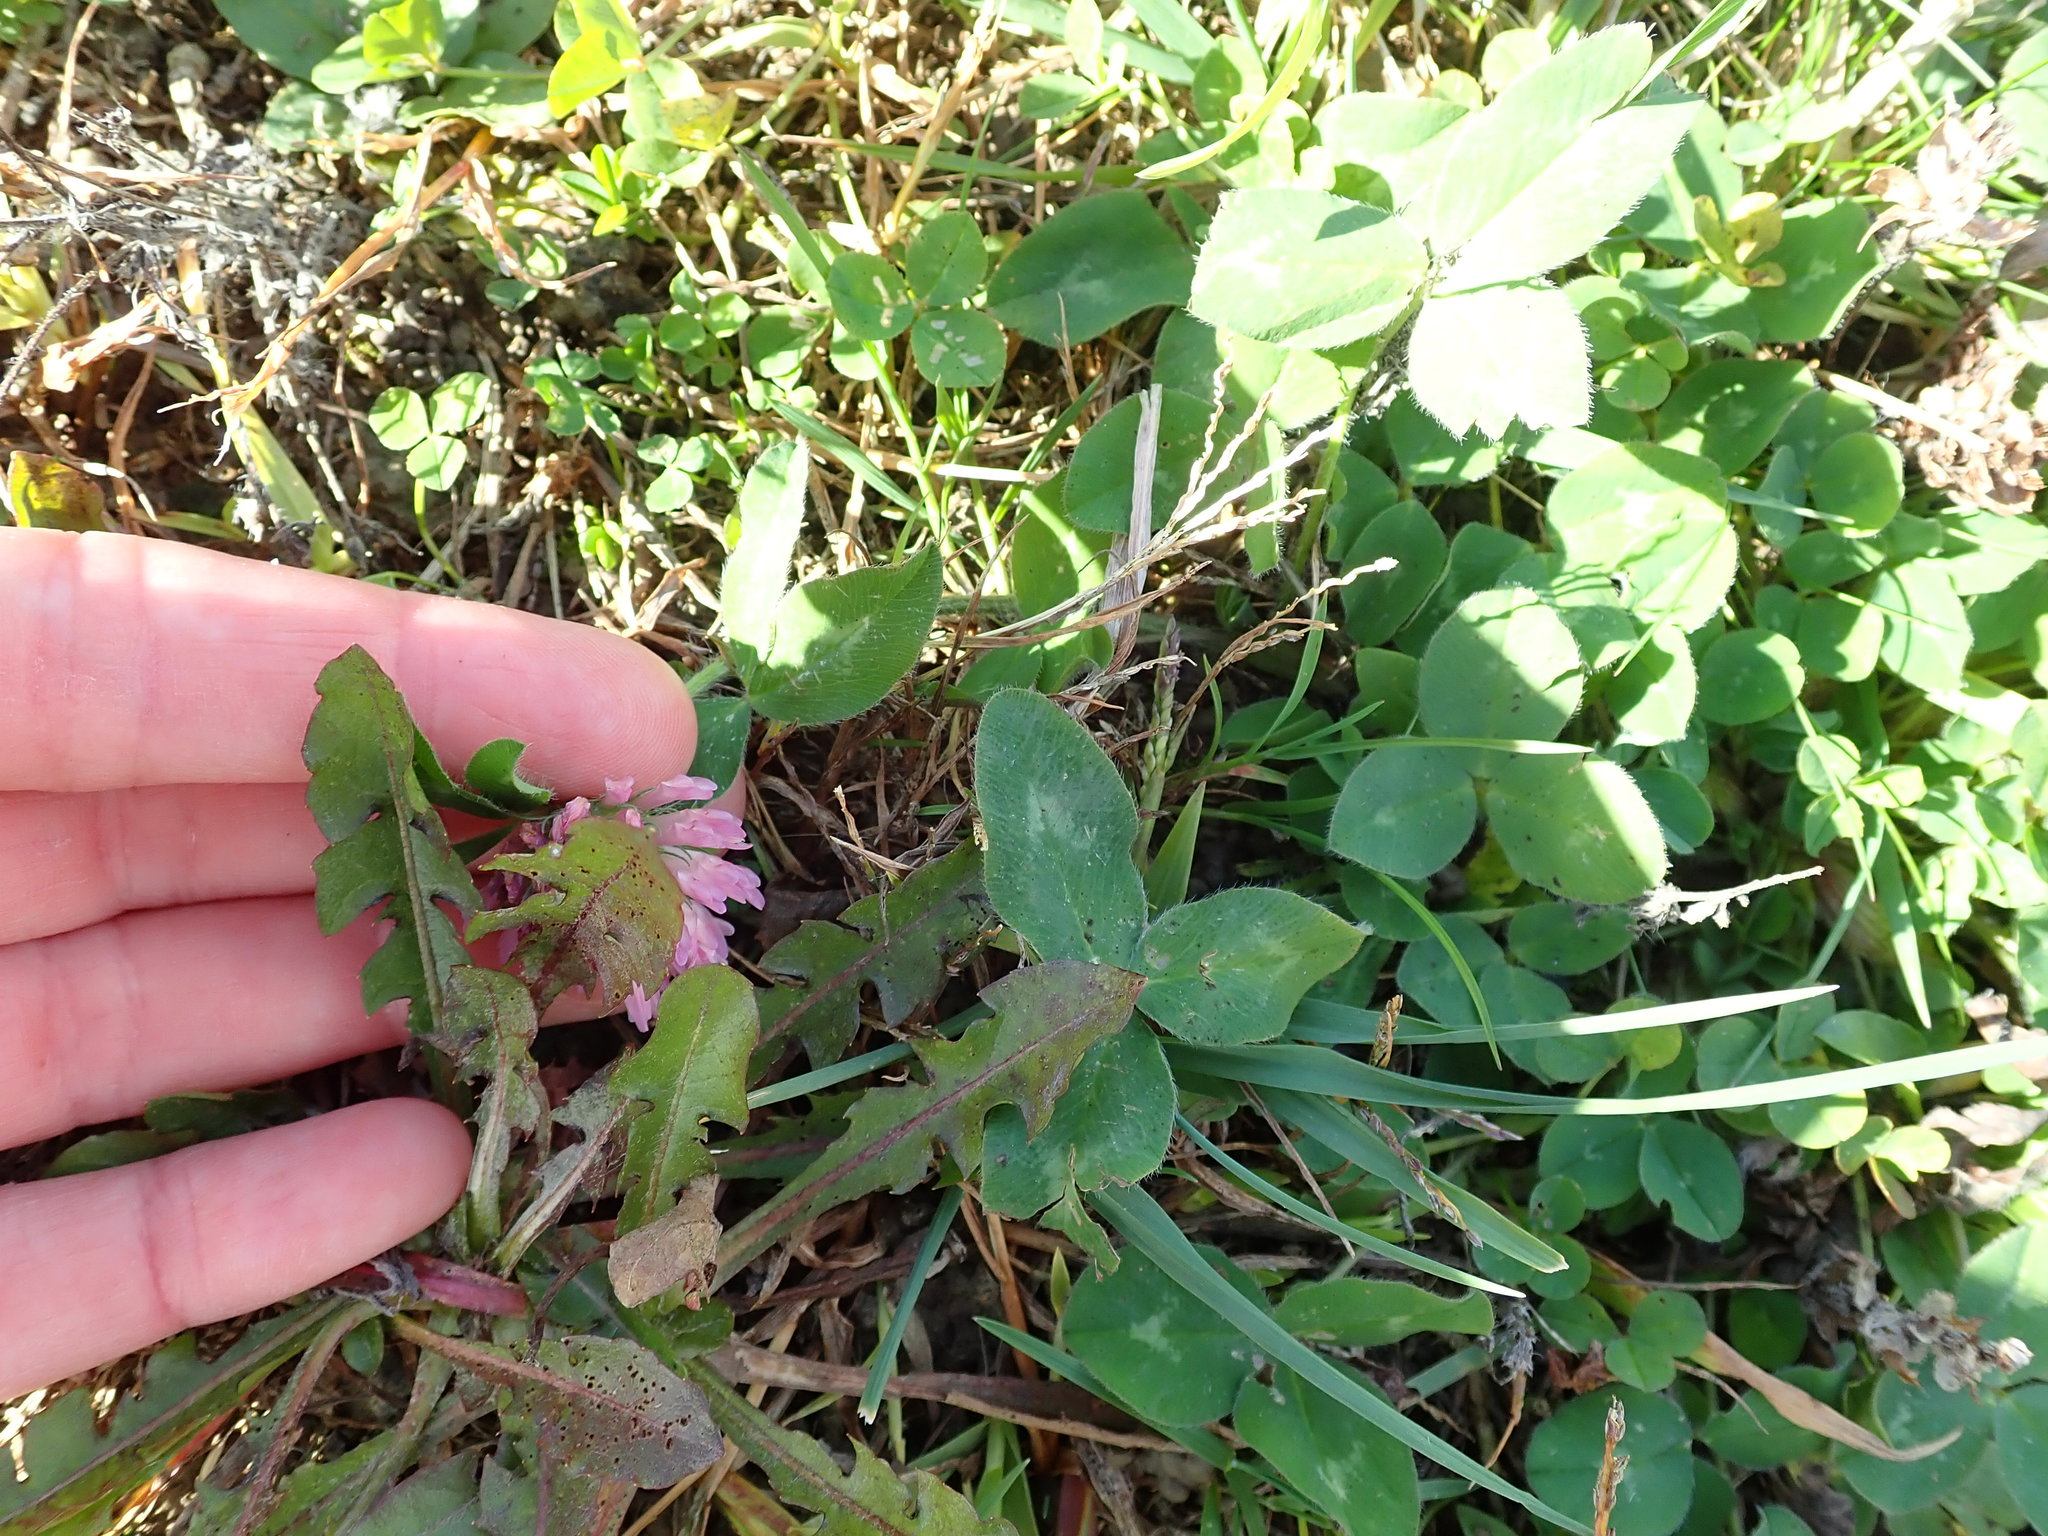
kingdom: Plantae
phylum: Tracheophyta
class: Magnoliopsida
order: Fabales
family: Fabaceae
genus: Trifolium
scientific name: Trifolium pratense
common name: Red clover
